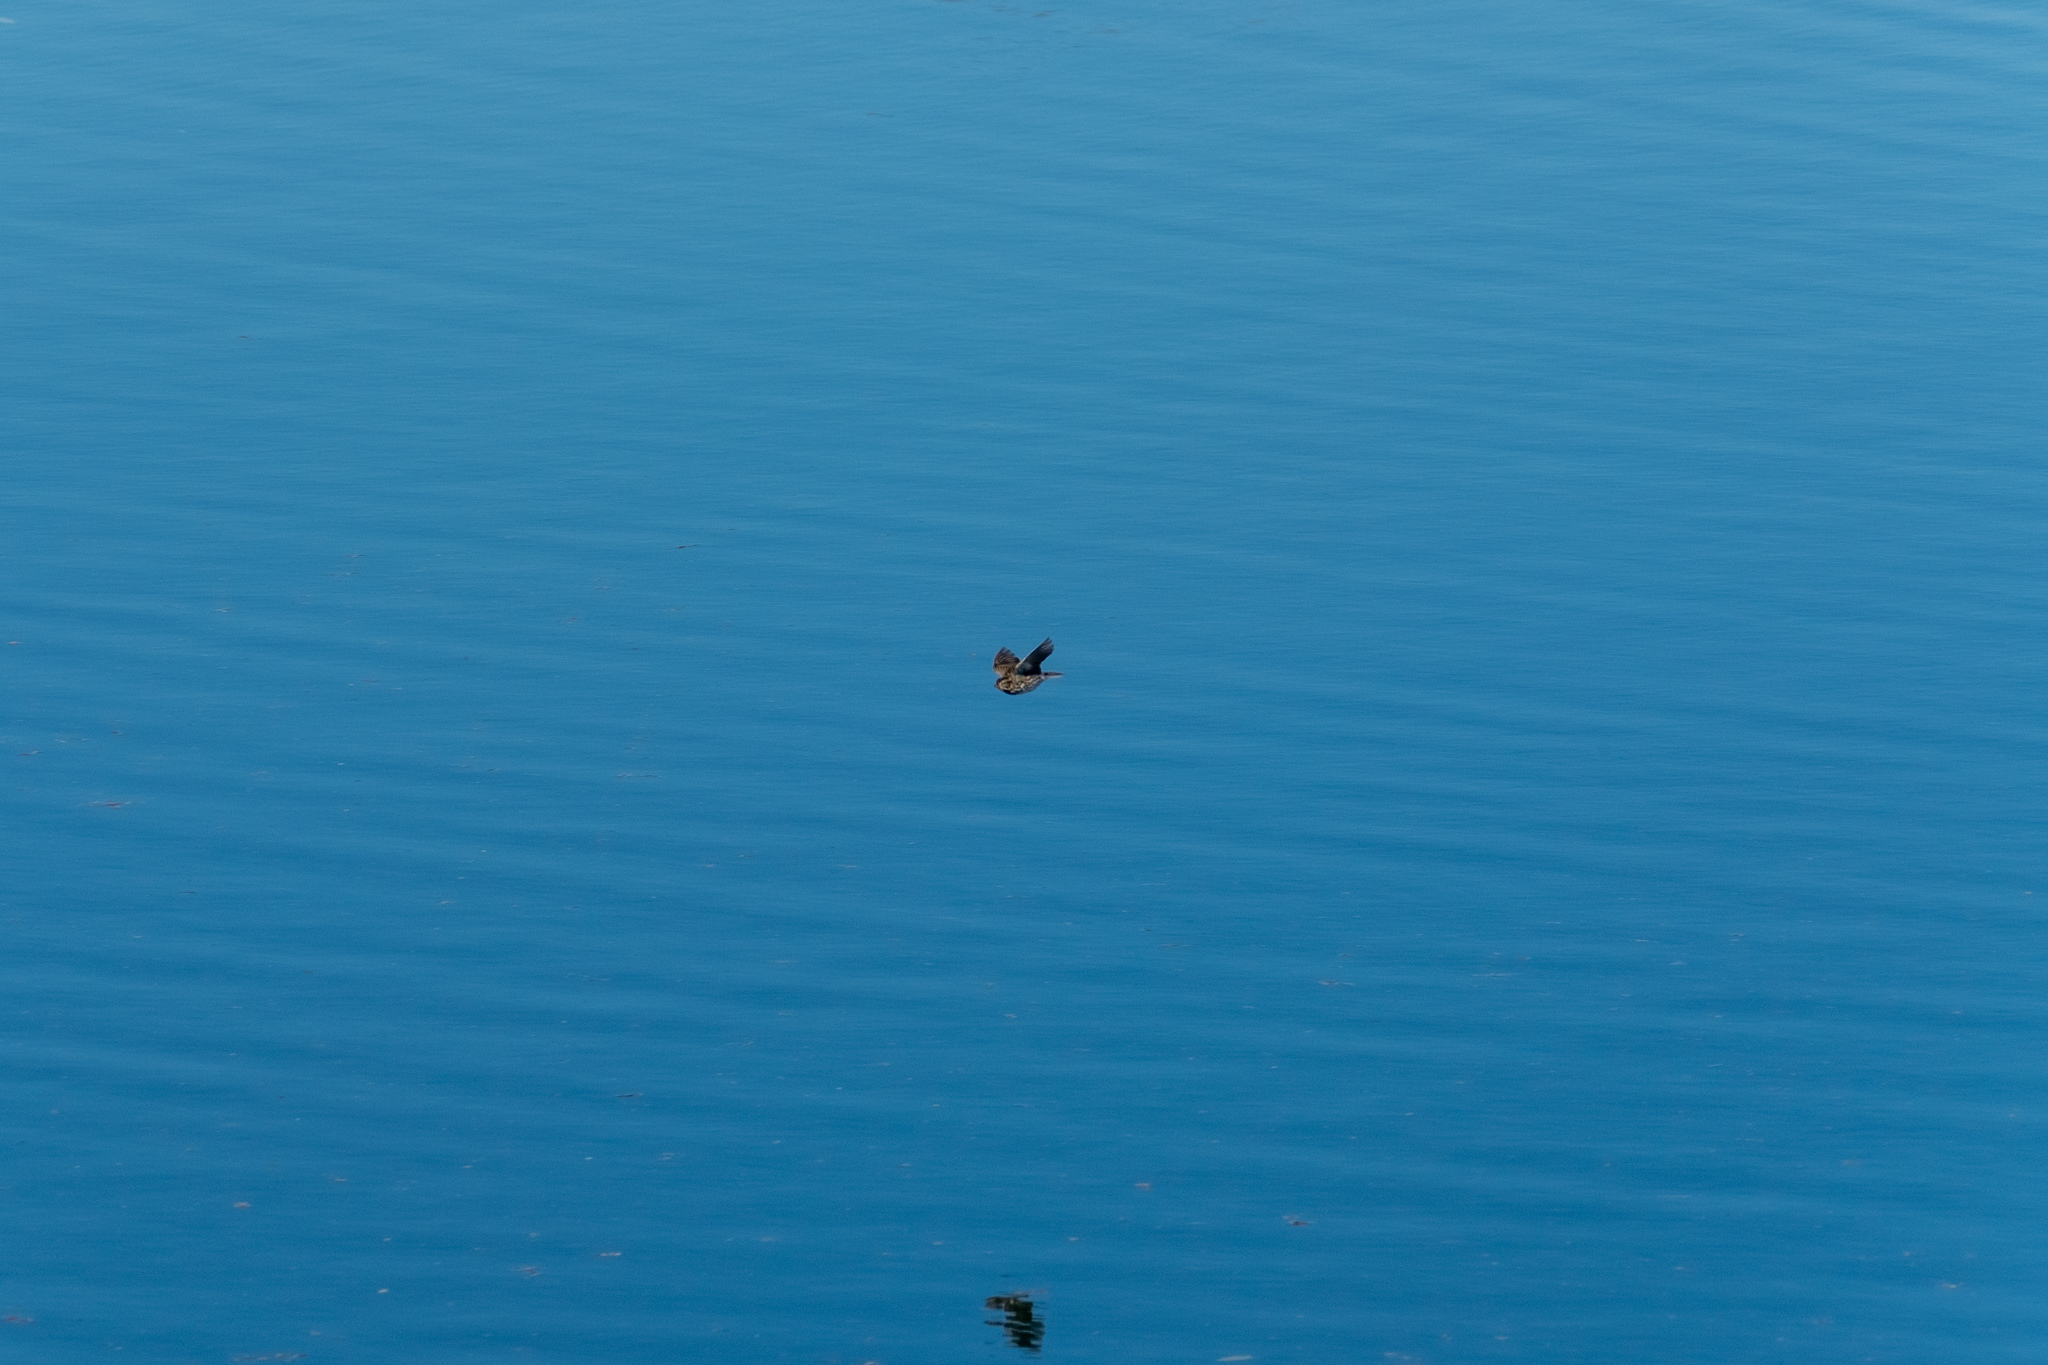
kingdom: Animalia
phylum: Chordata
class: Aves
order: Passeriformes
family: Passerellidae
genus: Passerculus
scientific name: Passerculus sandwichensis
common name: Savannah sparrow
